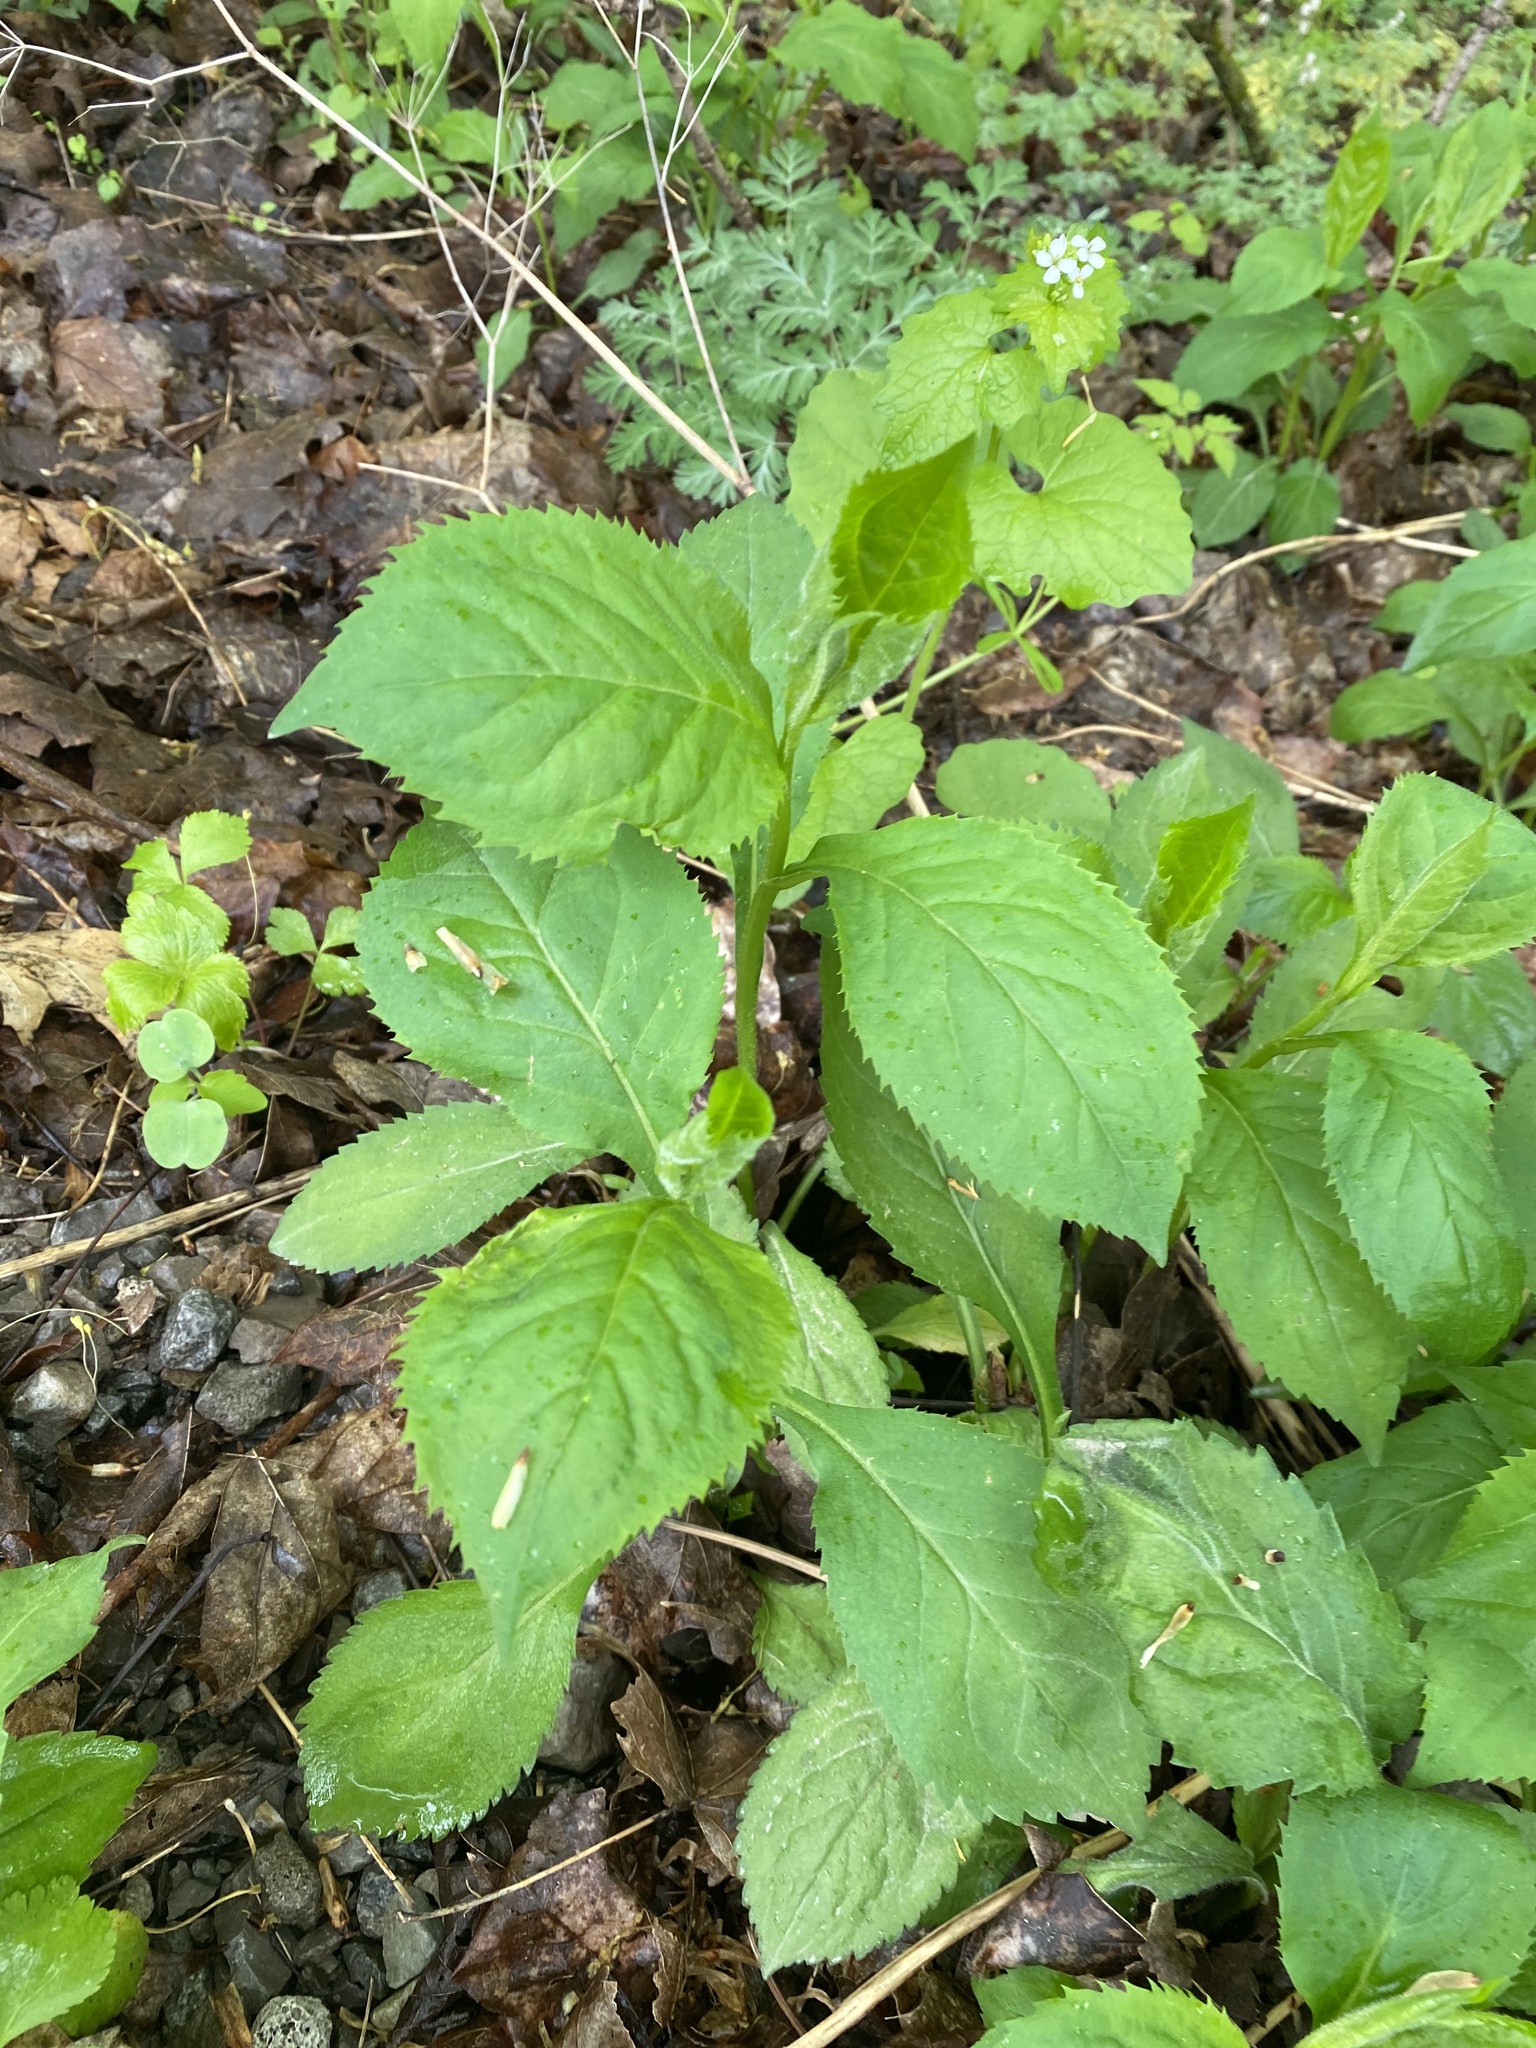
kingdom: Plantae
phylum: Tracheophyta
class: Magnoliopsida
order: Asterales
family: Asteraceae
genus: Solidago
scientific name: Solidago flexicaulis
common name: Zig-zag goldenrod
